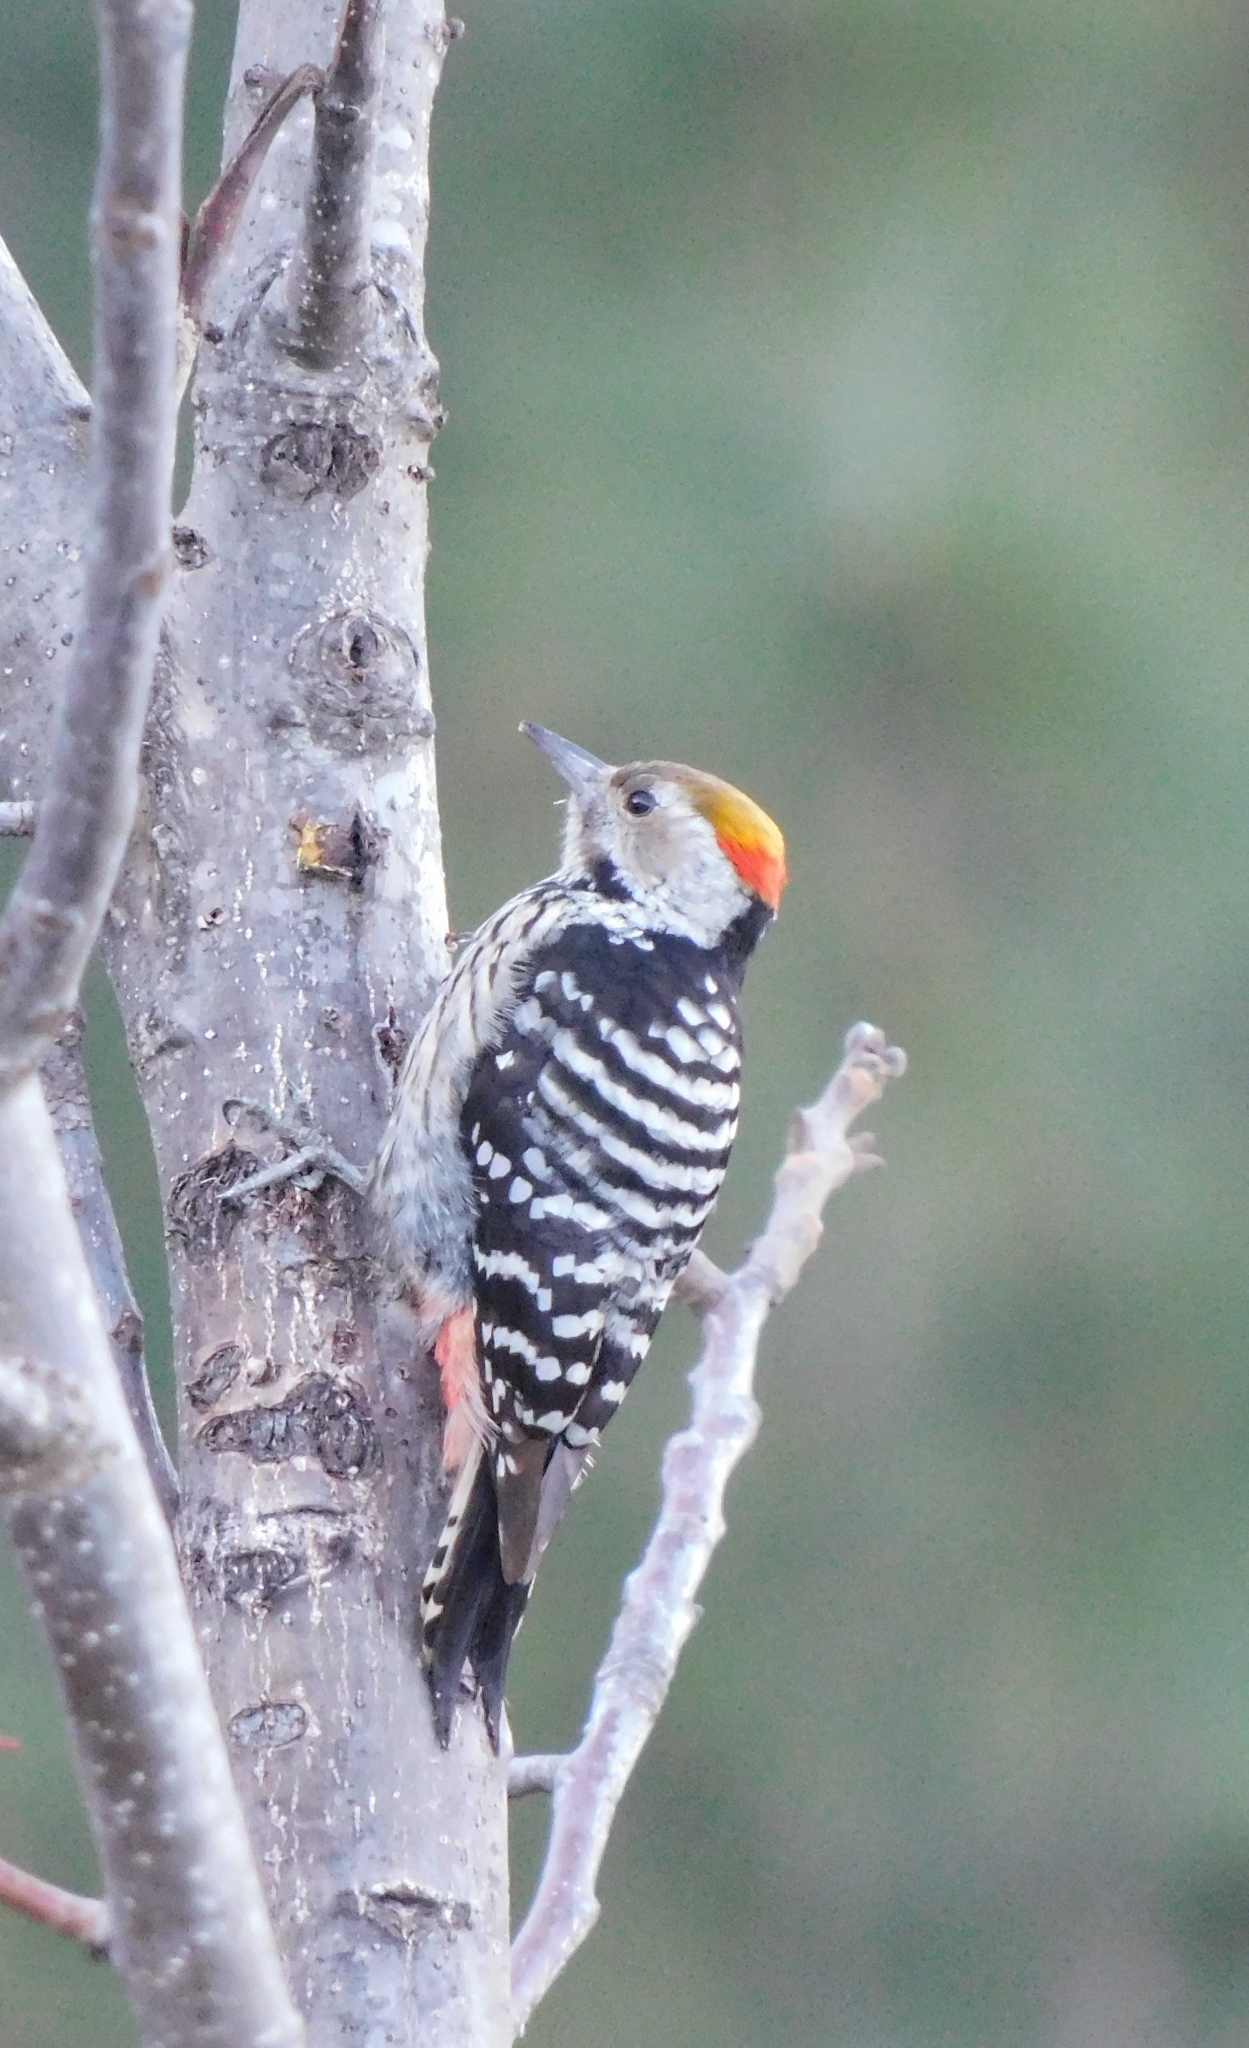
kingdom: Animalia
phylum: Chordata
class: Aves
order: Piciformes
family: Picidae
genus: Dendrocoptes
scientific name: Dendrocoptes auriceps
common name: Brown-fronted woodpecker
